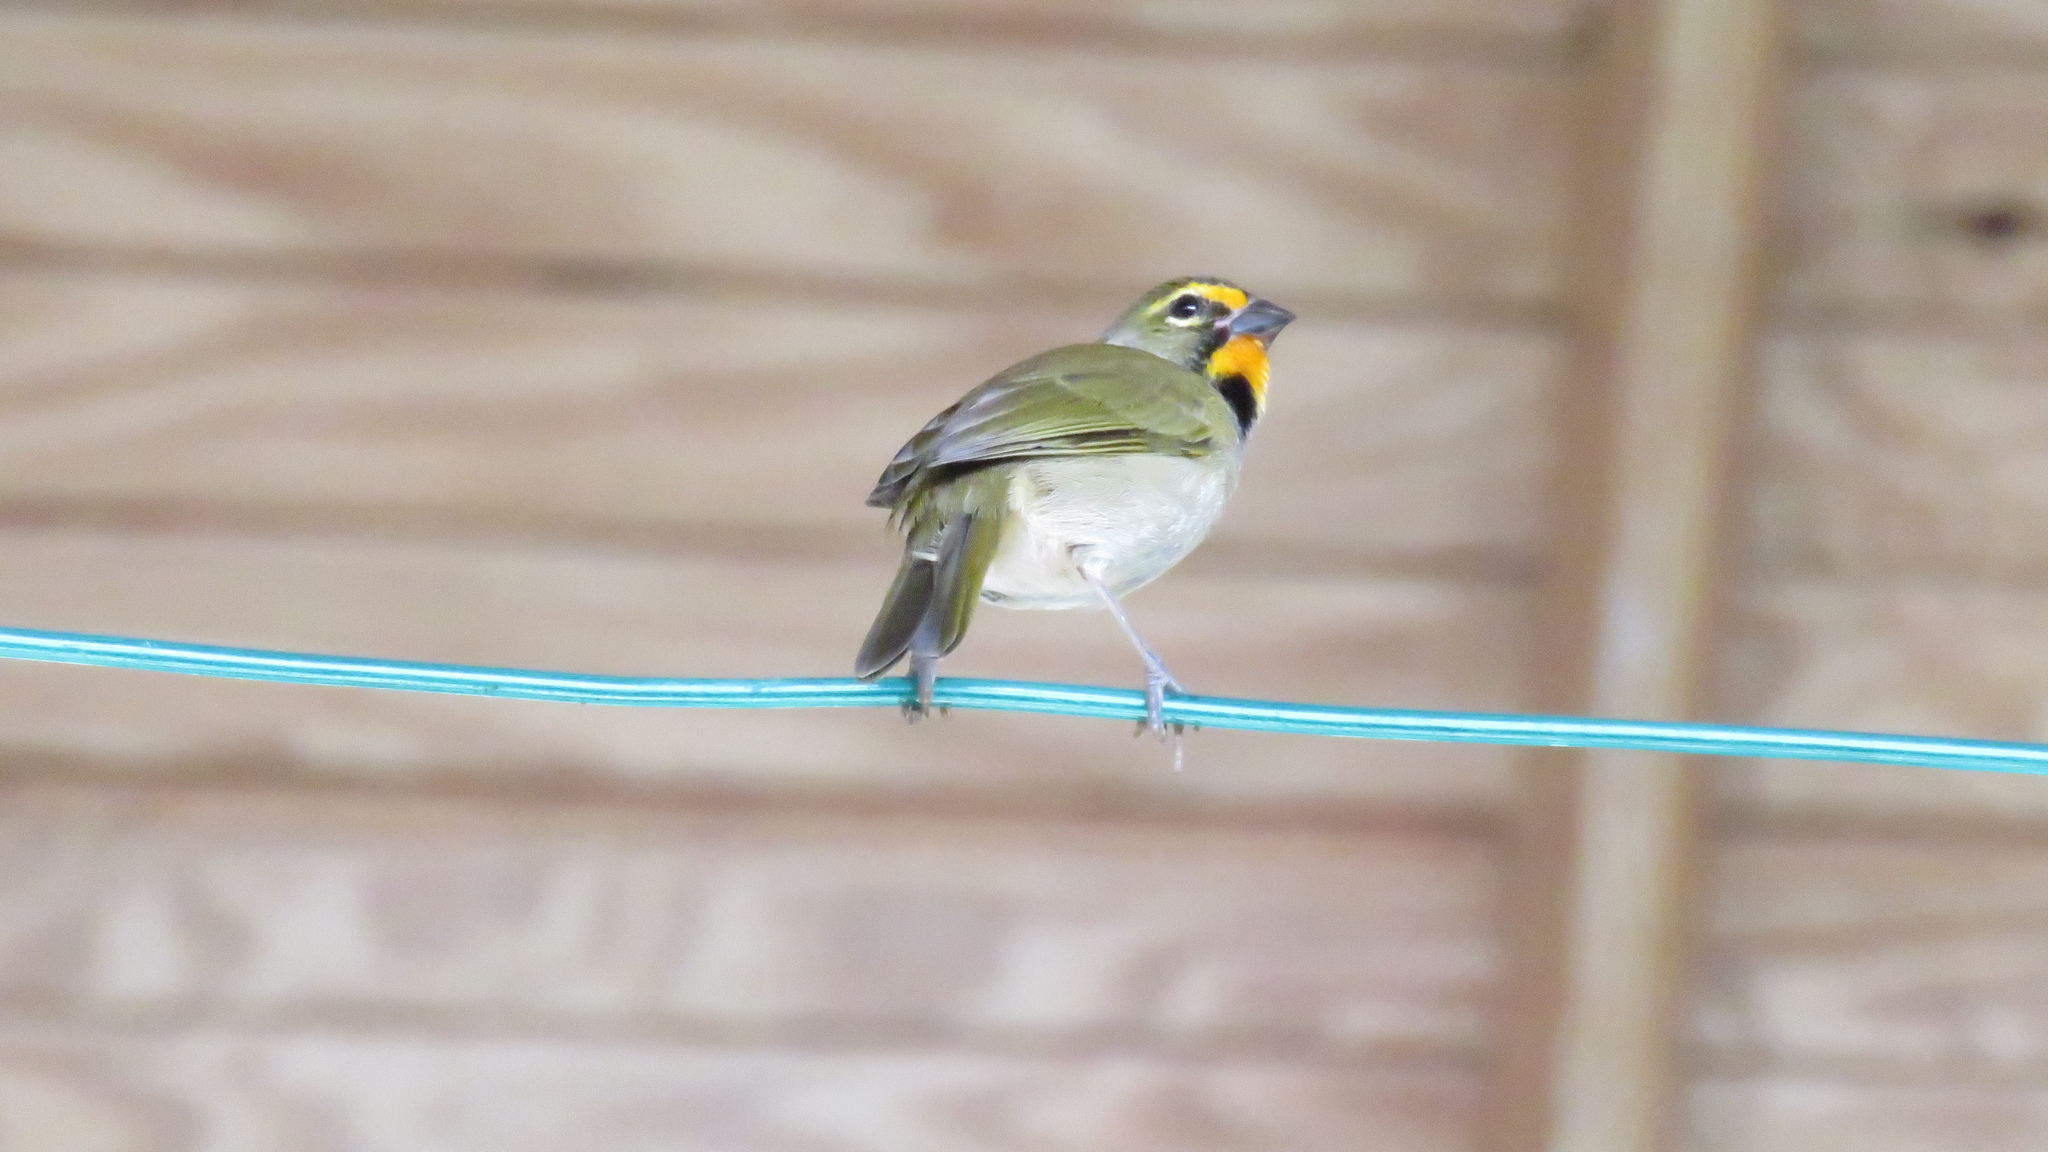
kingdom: Animalia
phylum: Chordata
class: Aves
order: Passeriformes
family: Thraupidae
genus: Tiaris
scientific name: Tiaris olivaceus
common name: Yellow-faced grassquit
